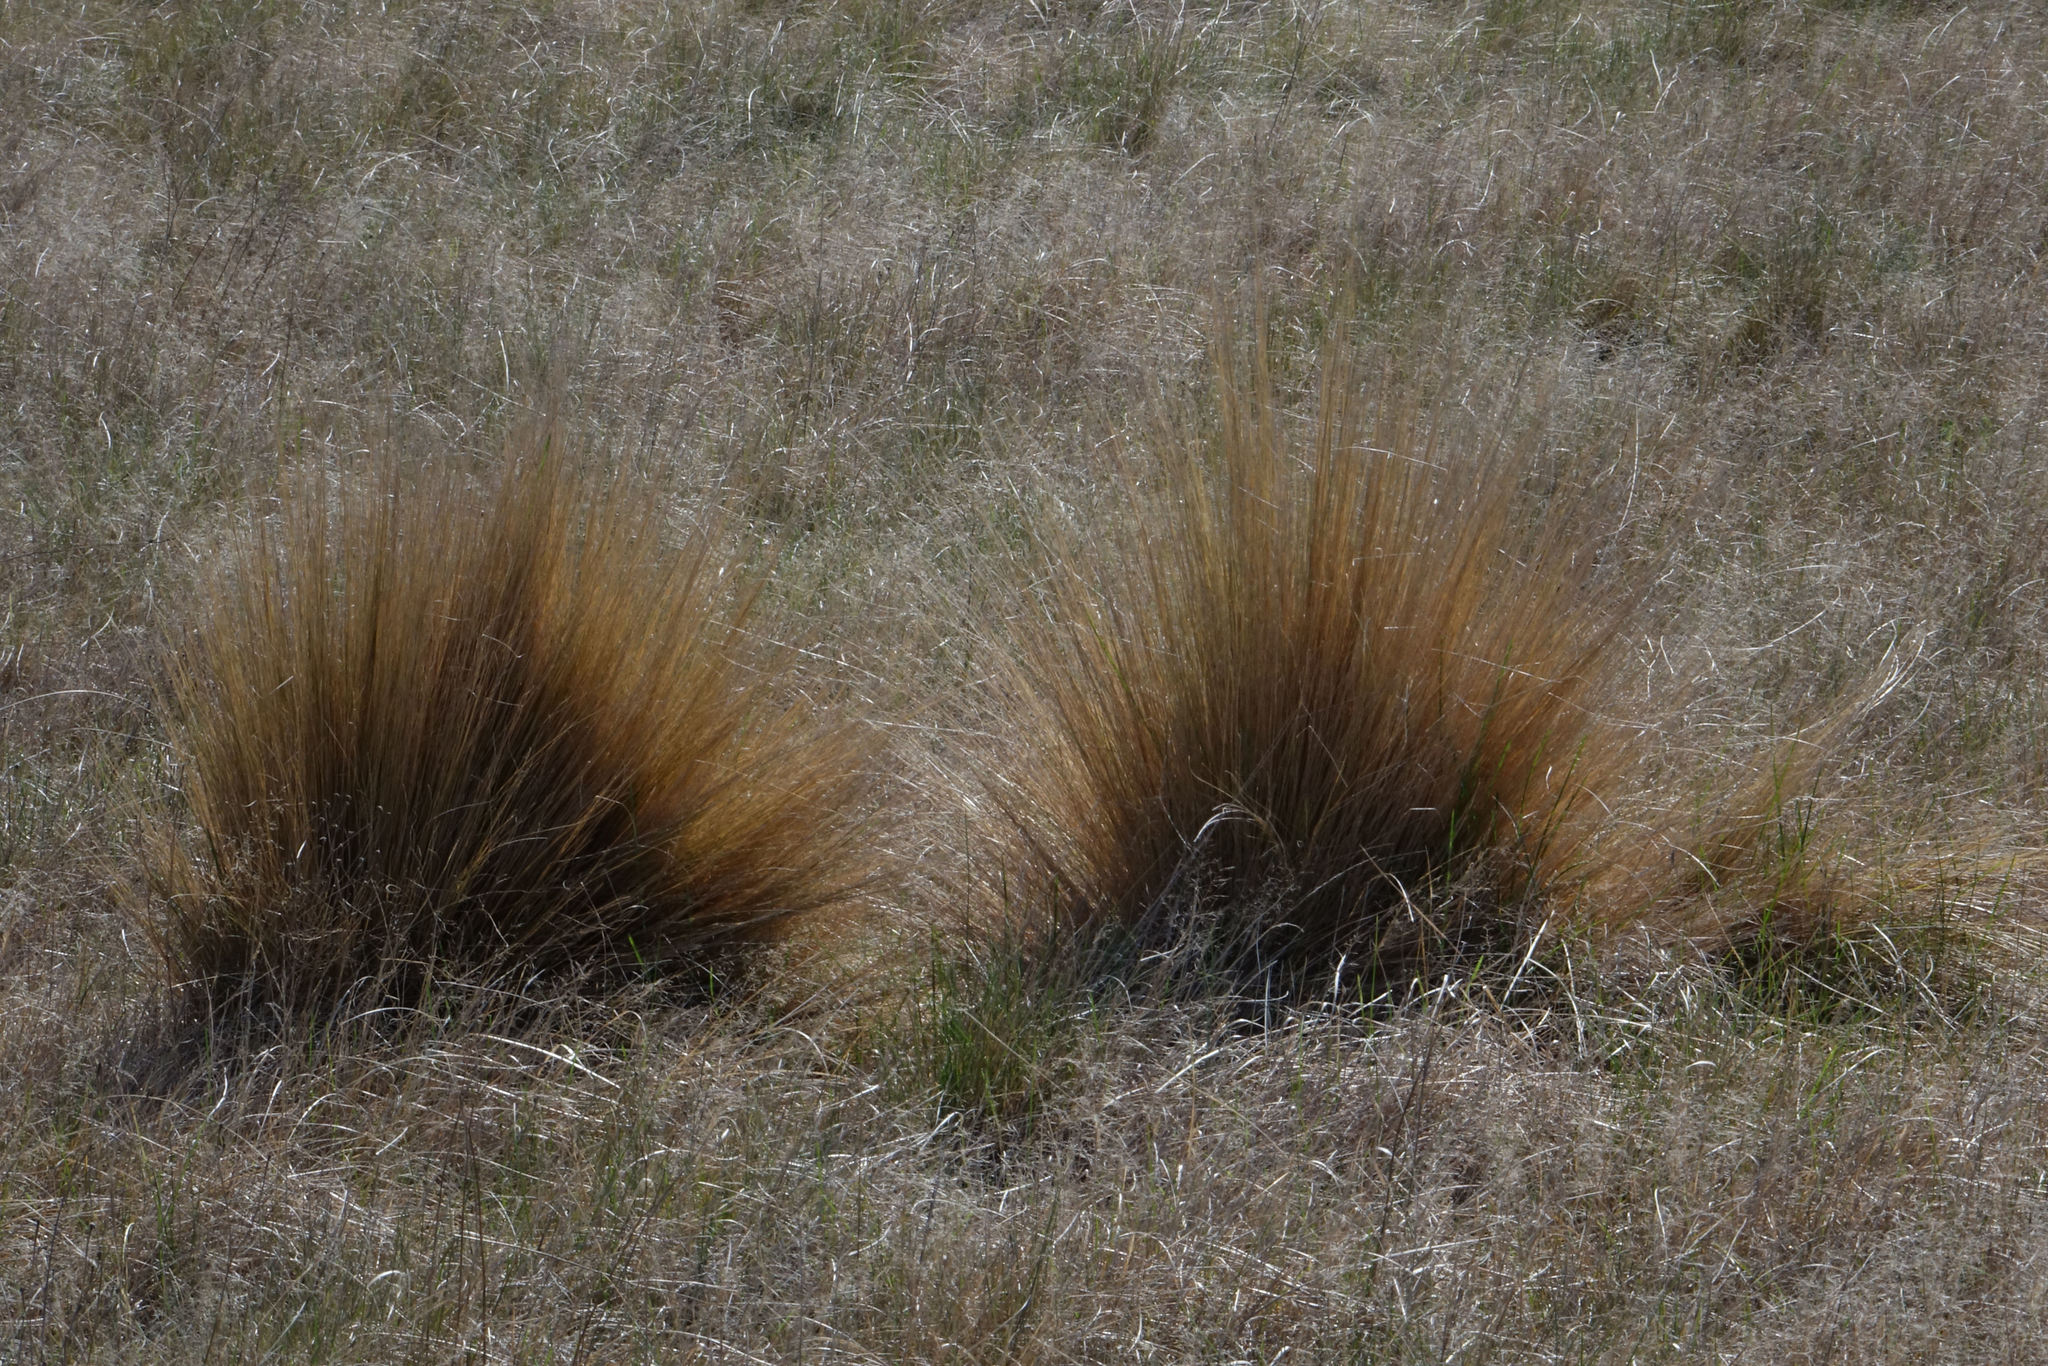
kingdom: Plantae
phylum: Tracheophyta
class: Liliopsida
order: Poales
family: Poaceae
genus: Festuca
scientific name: Festuca novae-zelandiae
